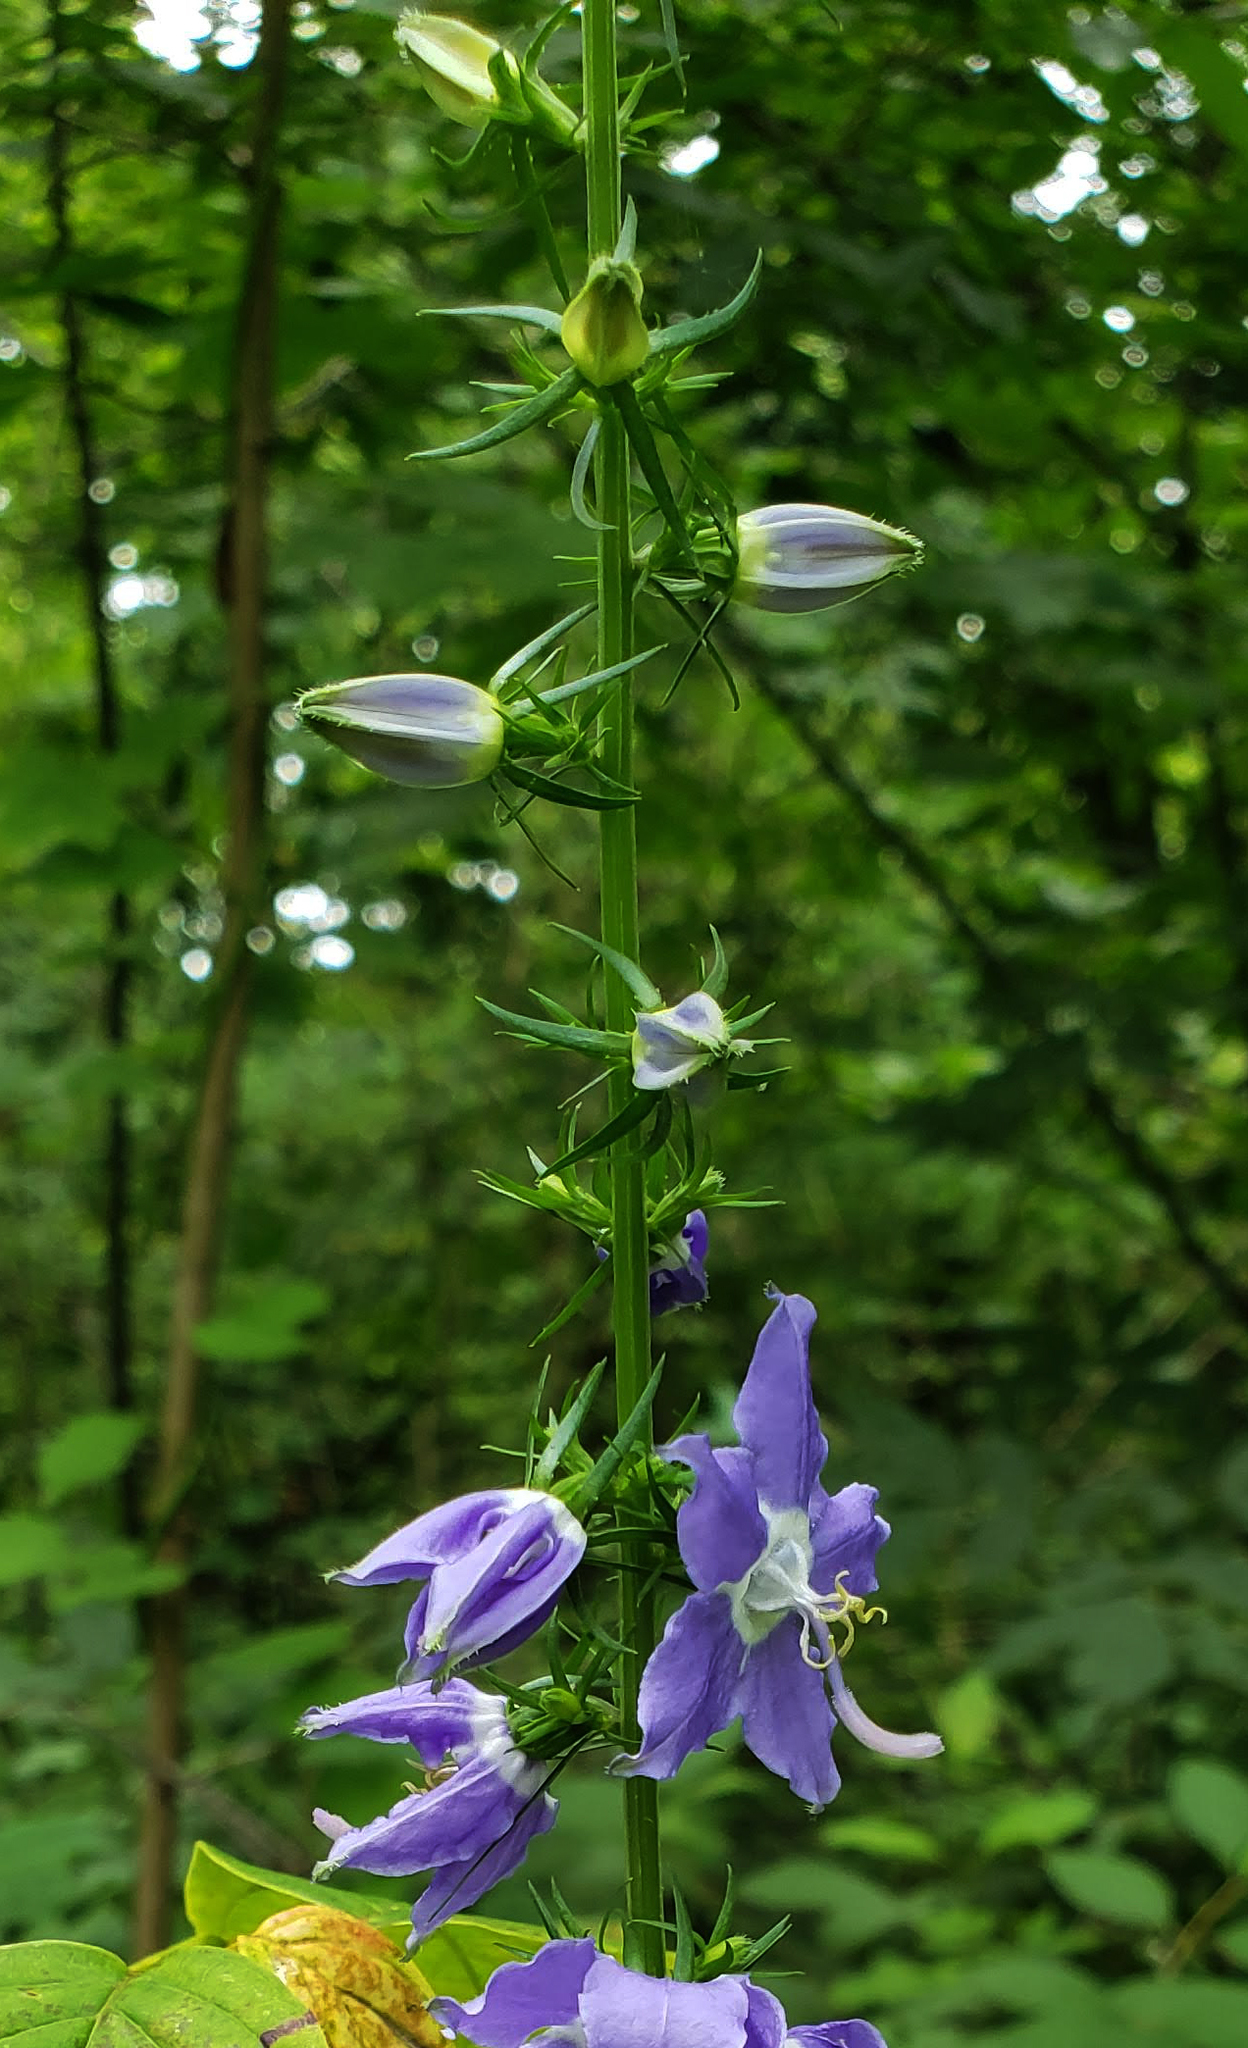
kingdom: Plantae
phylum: Tracheophyta
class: Magnoliopsida
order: Asterales
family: Campanulaceae
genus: Campanulastrum
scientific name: Campanulastrum americanum
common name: American bellflower
